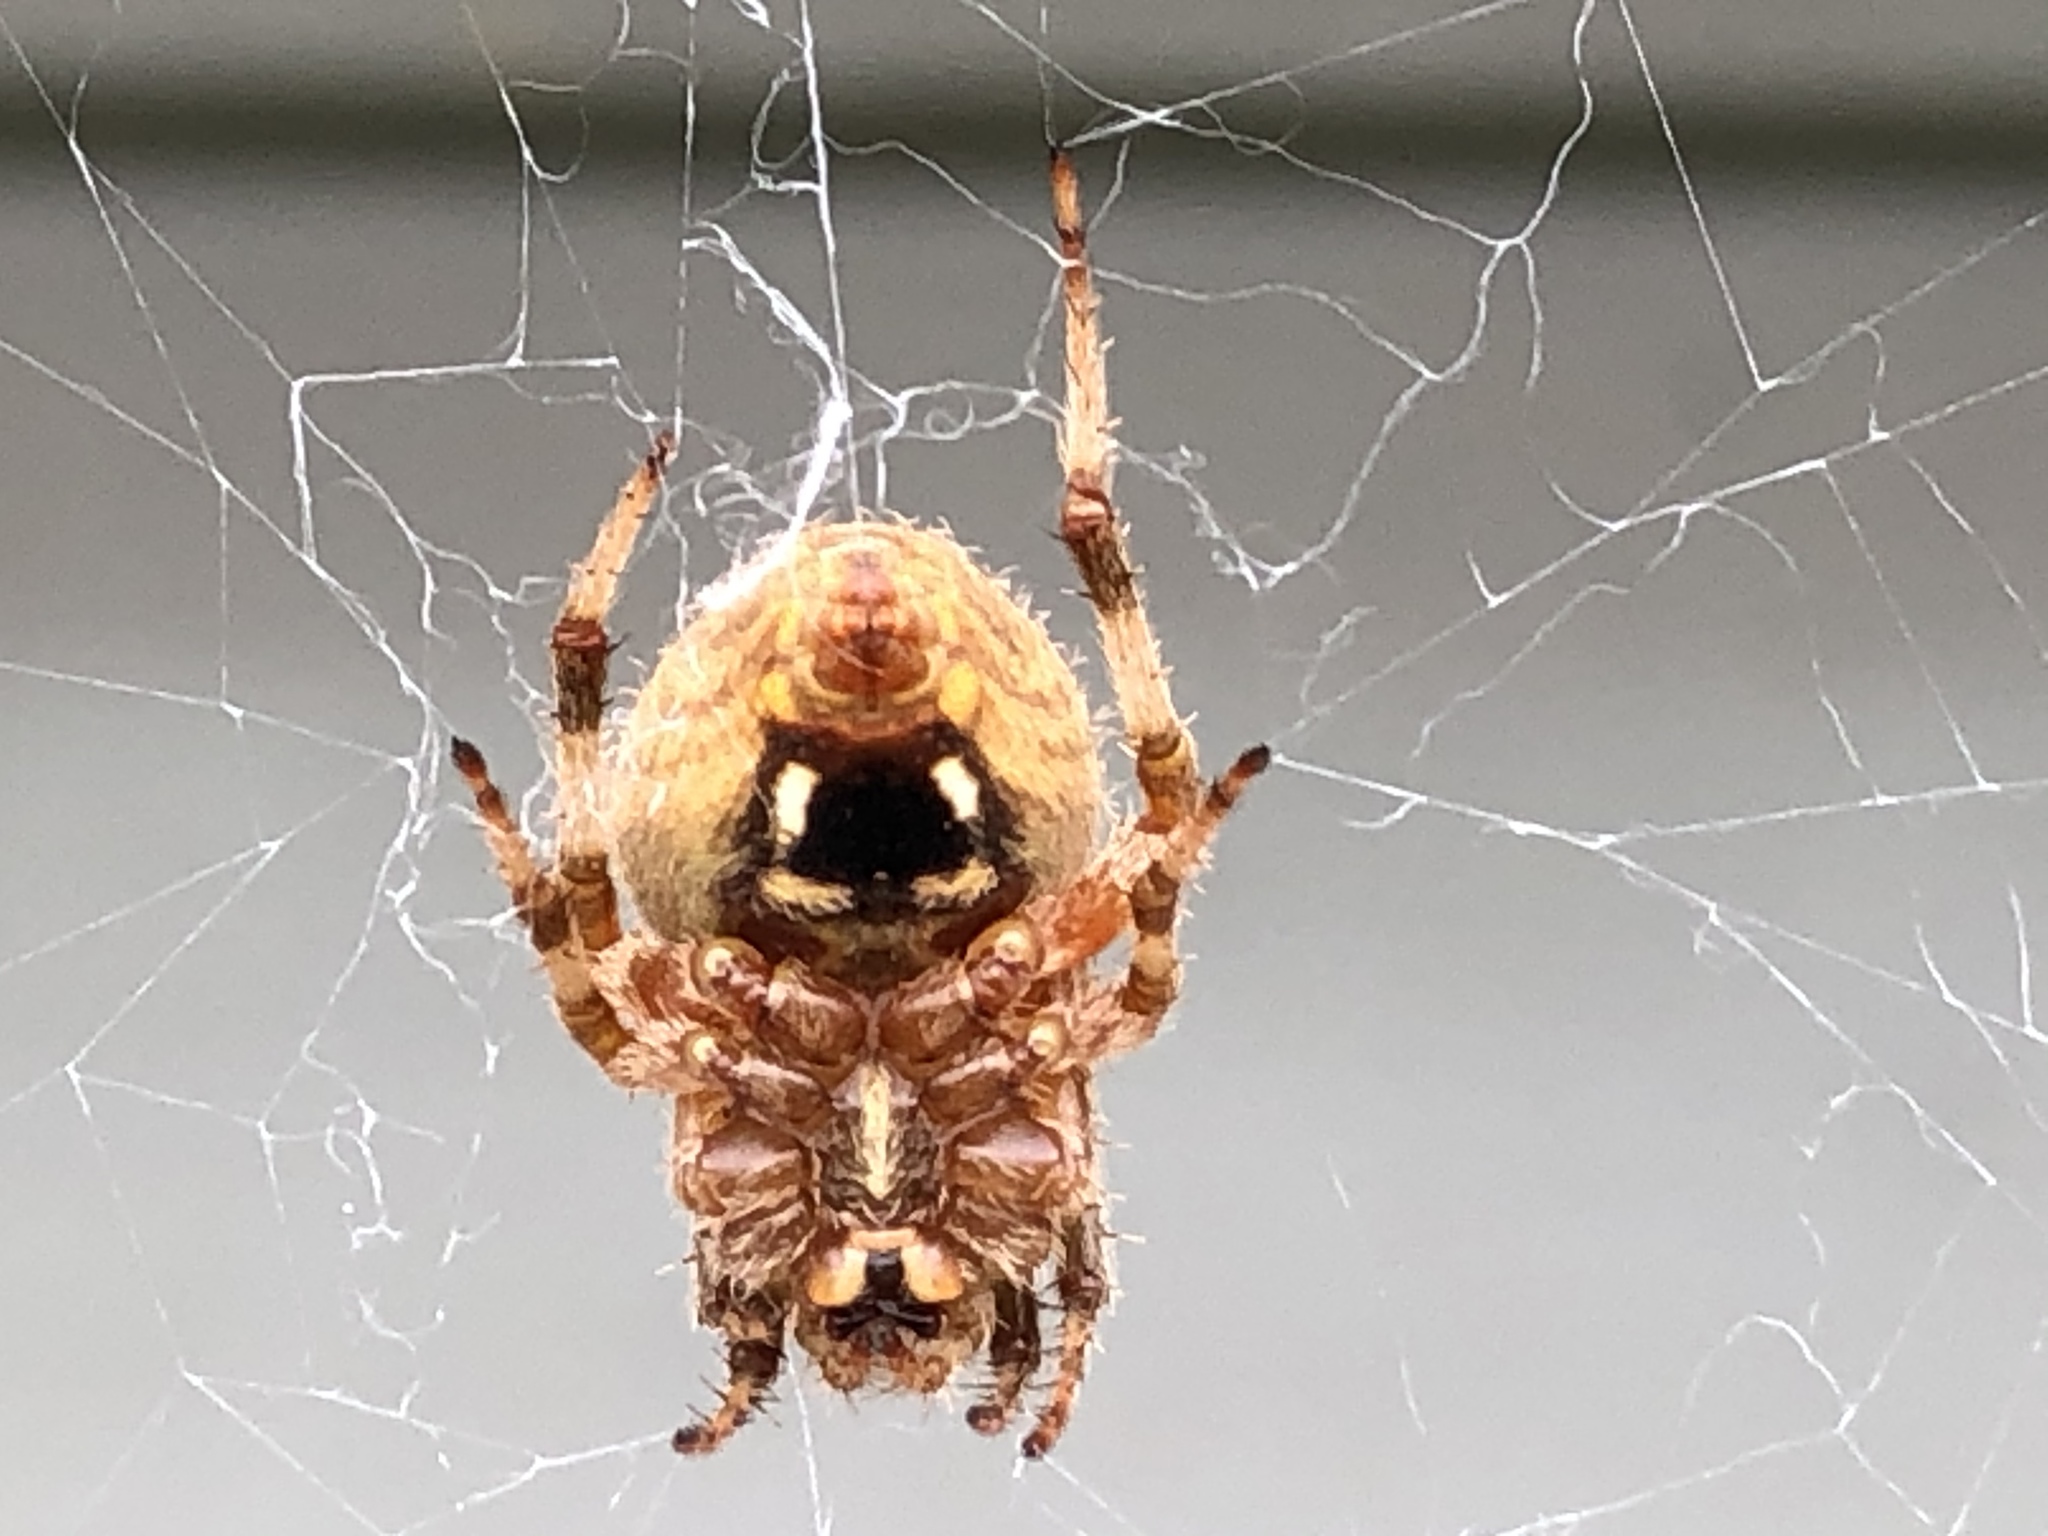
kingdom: Animalia
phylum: Arthropoda
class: Arachnida
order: Araneae
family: Araneidae
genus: Neoscona
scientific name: Neoscona crucifera
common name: Spotted orbweaver
